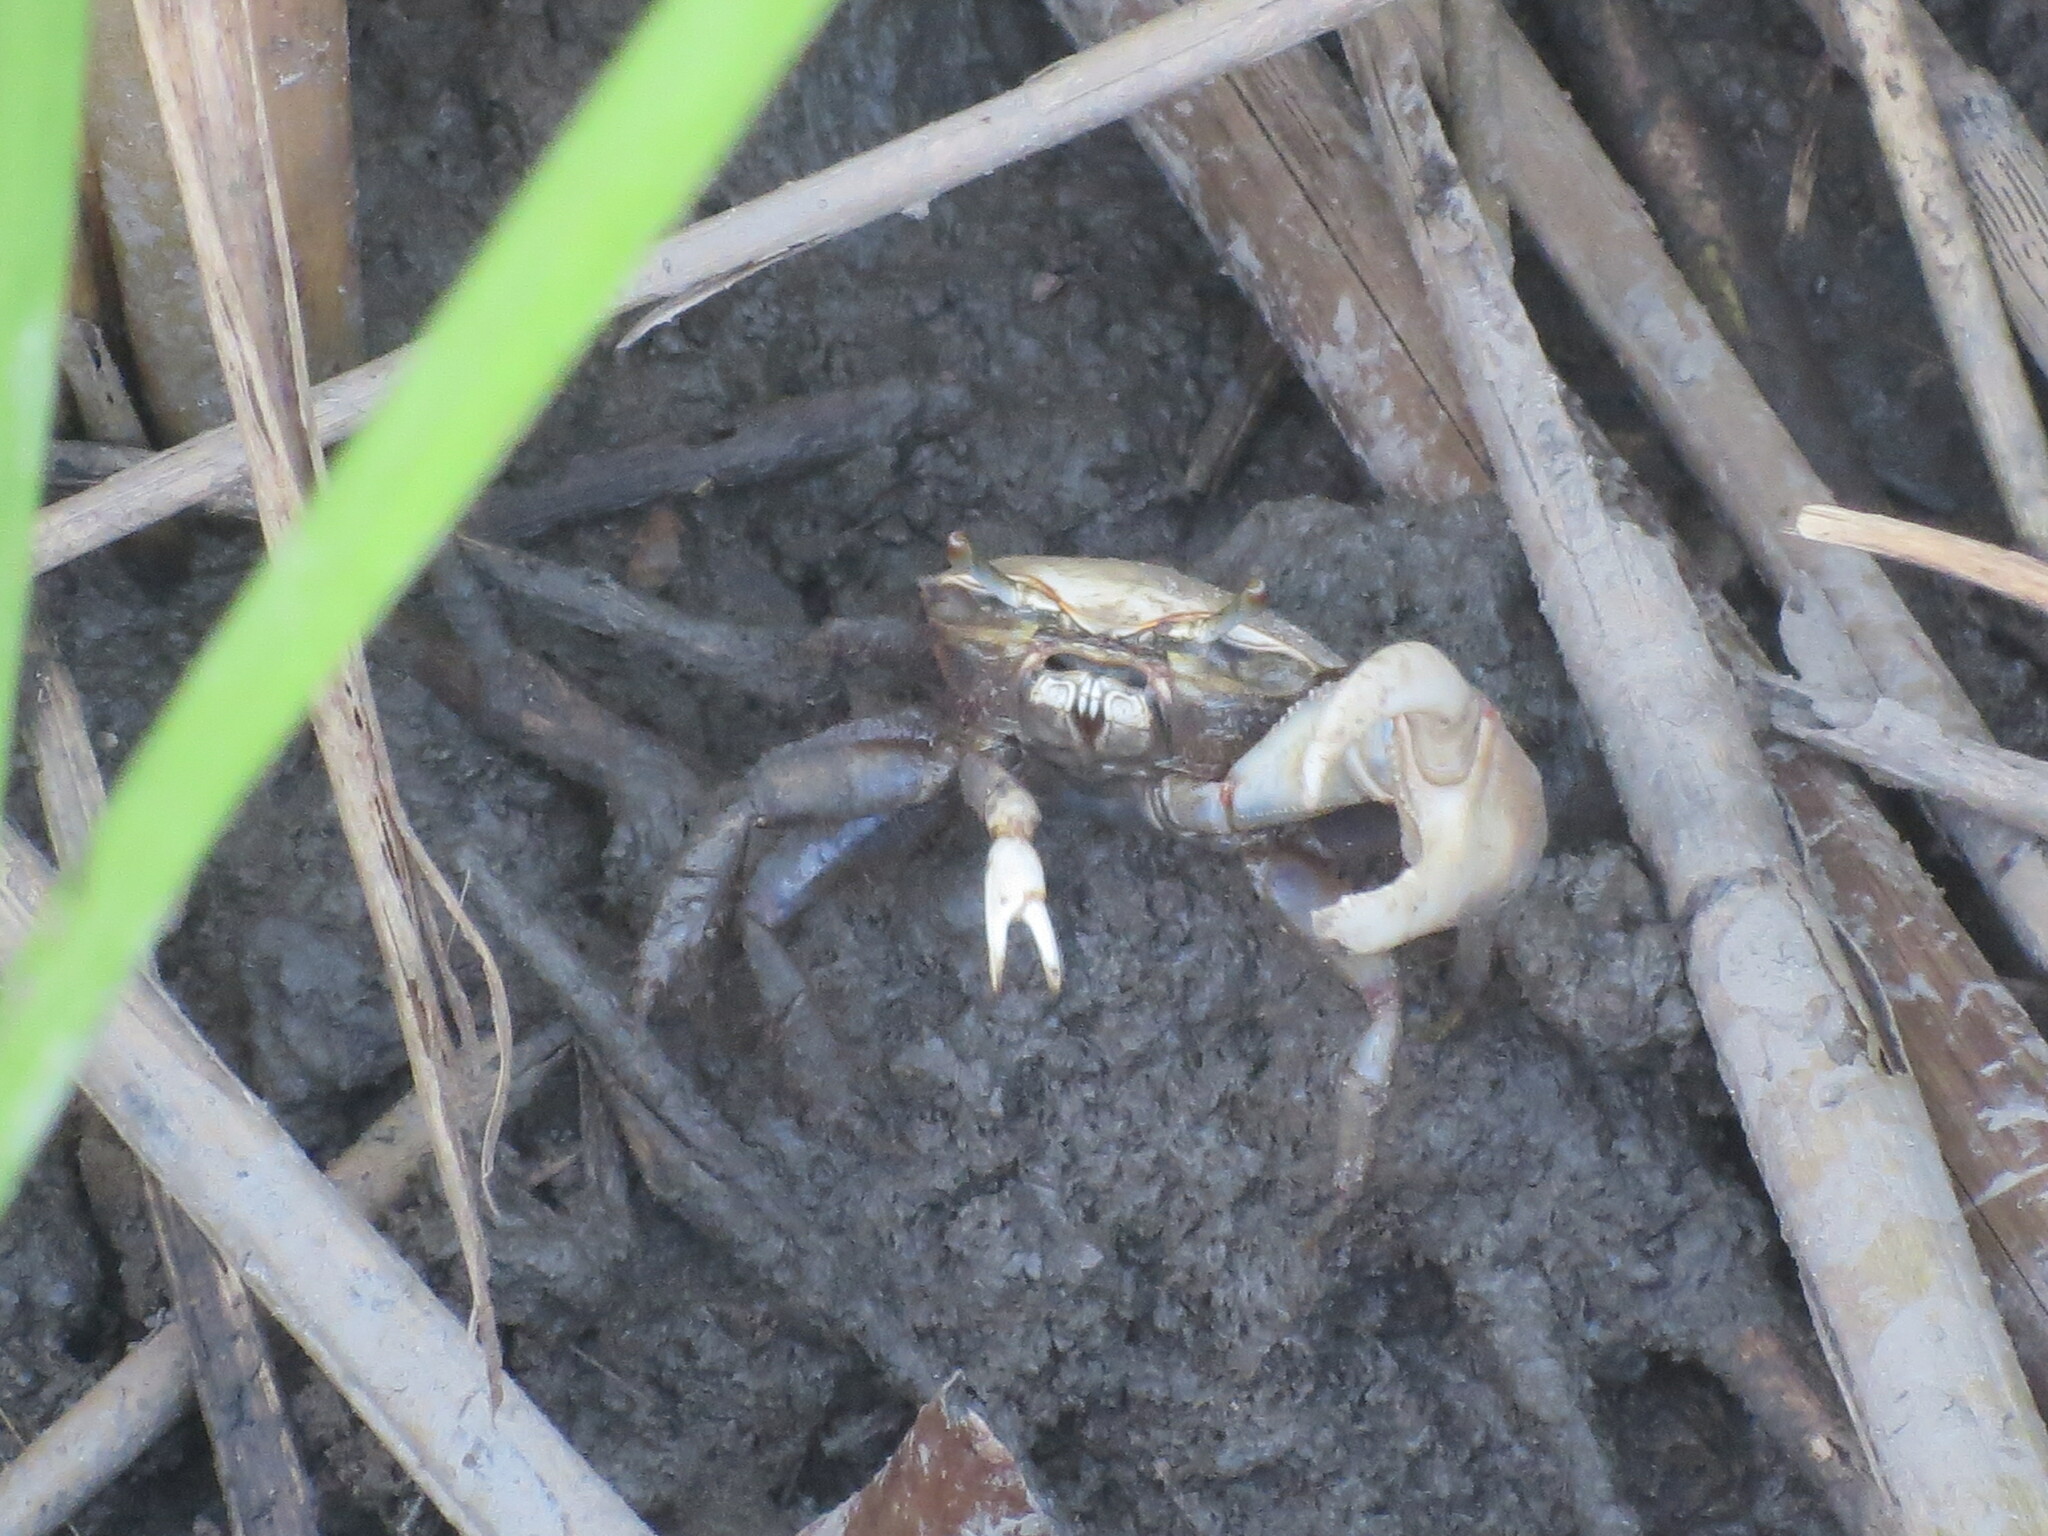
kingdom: Animalia
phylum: Arthropoda
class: Malacostraca
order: Decapoda
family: Ocypodidae
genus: Minuca
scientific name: Minuca minax
